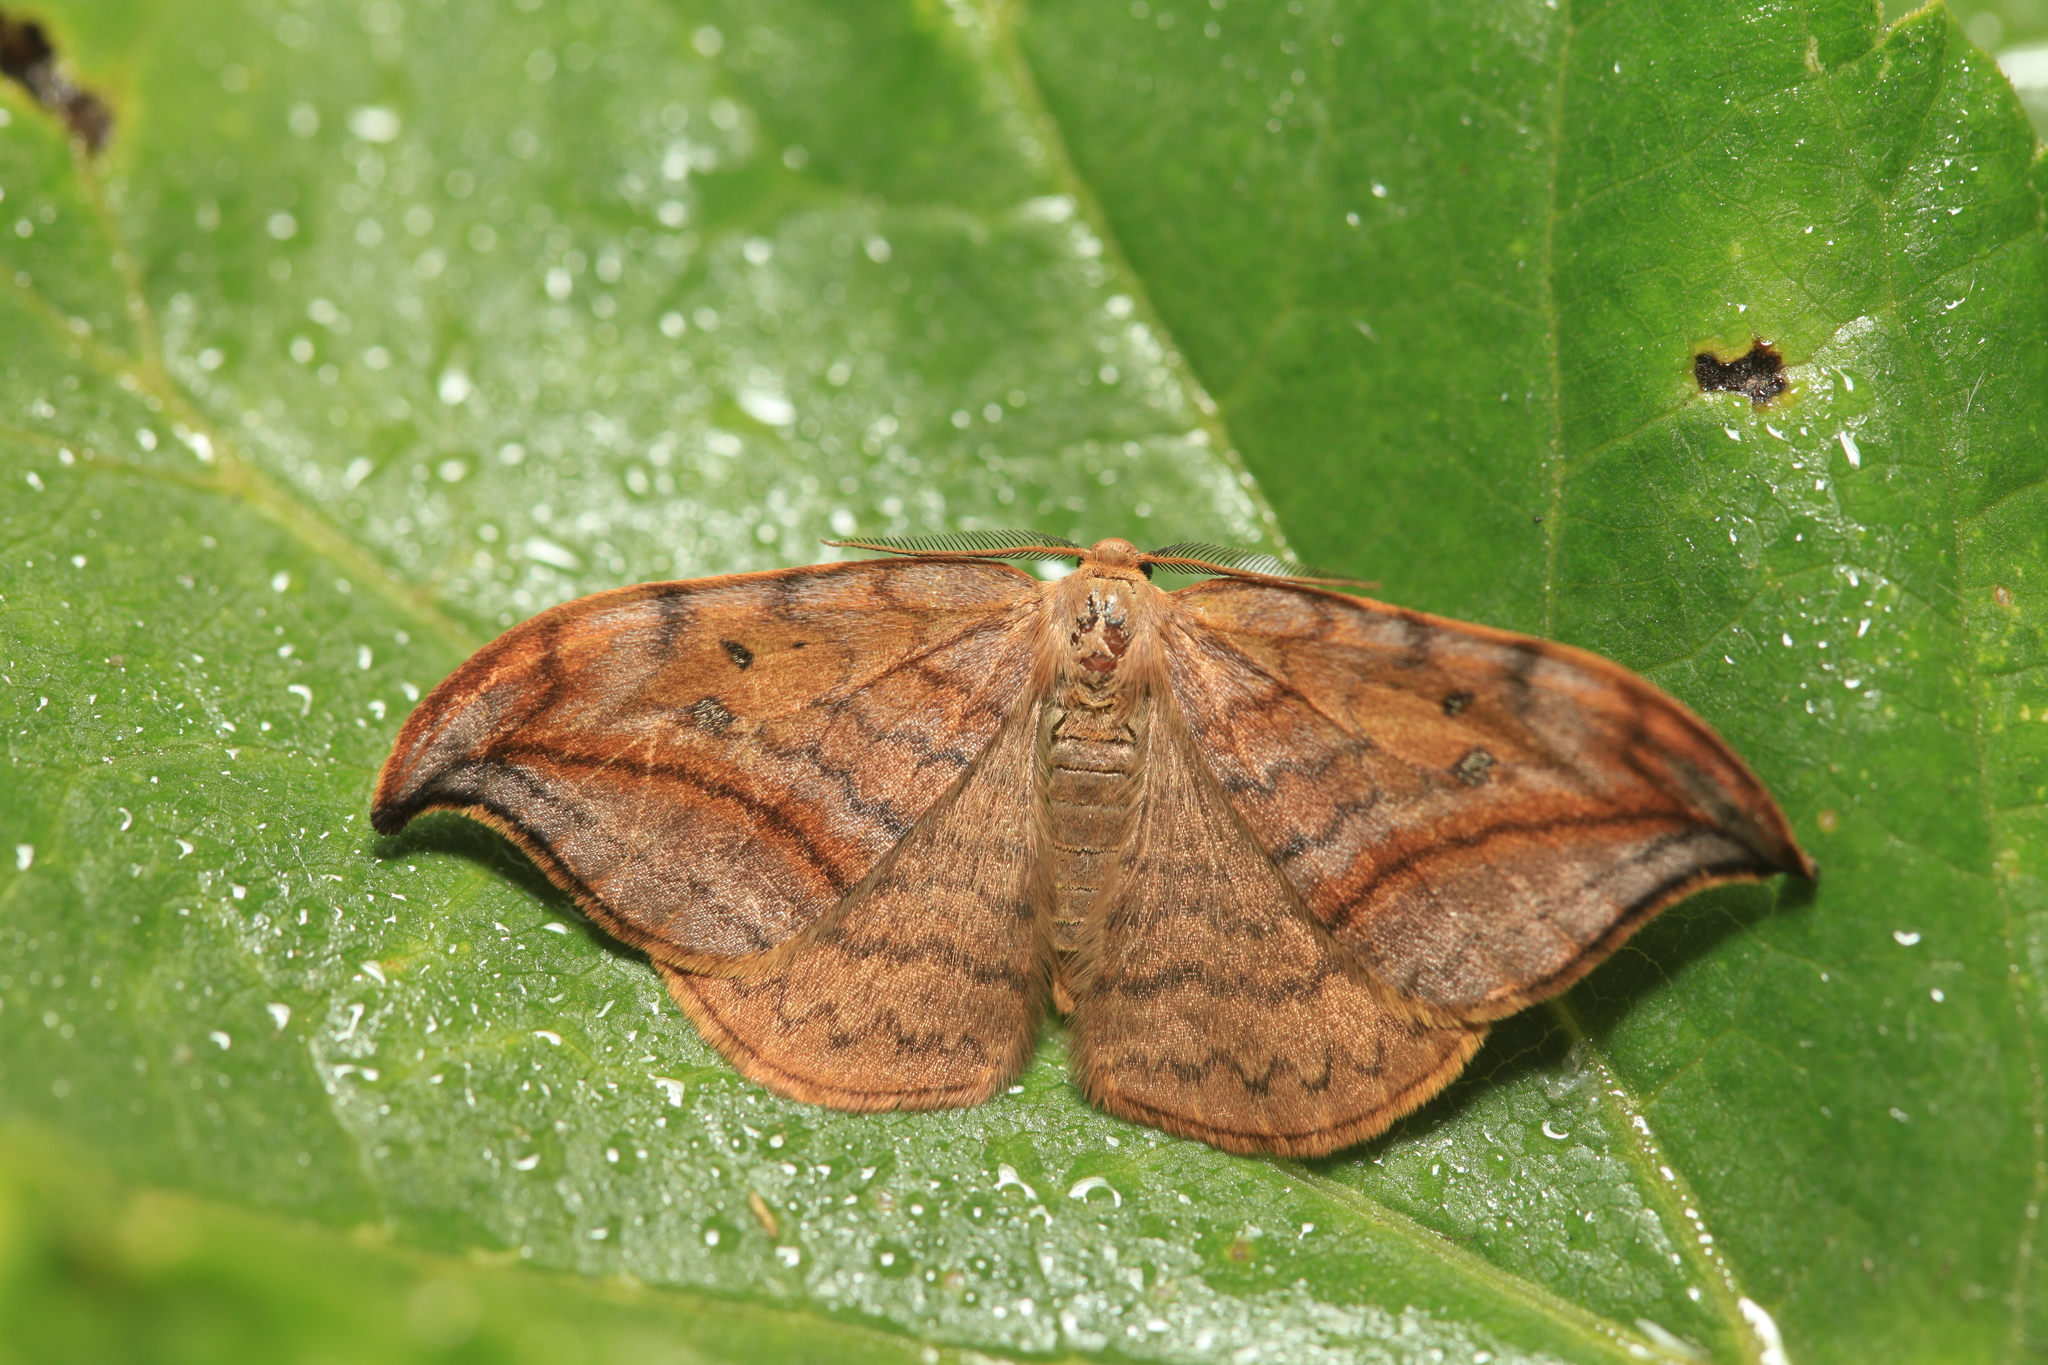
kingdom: Animalia
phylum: Arthropoda
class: Insecta
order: Lepidoptera
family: Drepanidae
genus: Drepana
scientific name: Drepana curvatula
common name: Dusky hook-tip
